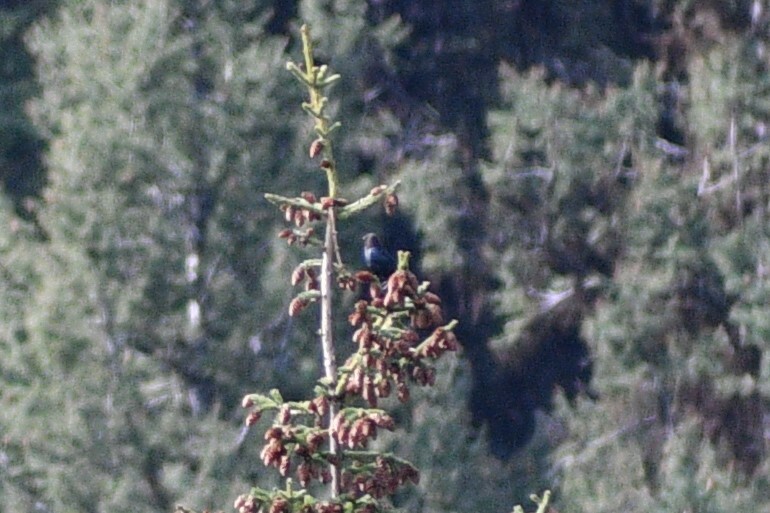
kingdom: Animalia
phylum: Chordata
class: Aves
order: Passeriformes
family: Icteridae
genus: Molothrus
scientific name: Molothrus ater
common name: Brown-headed cowbird
